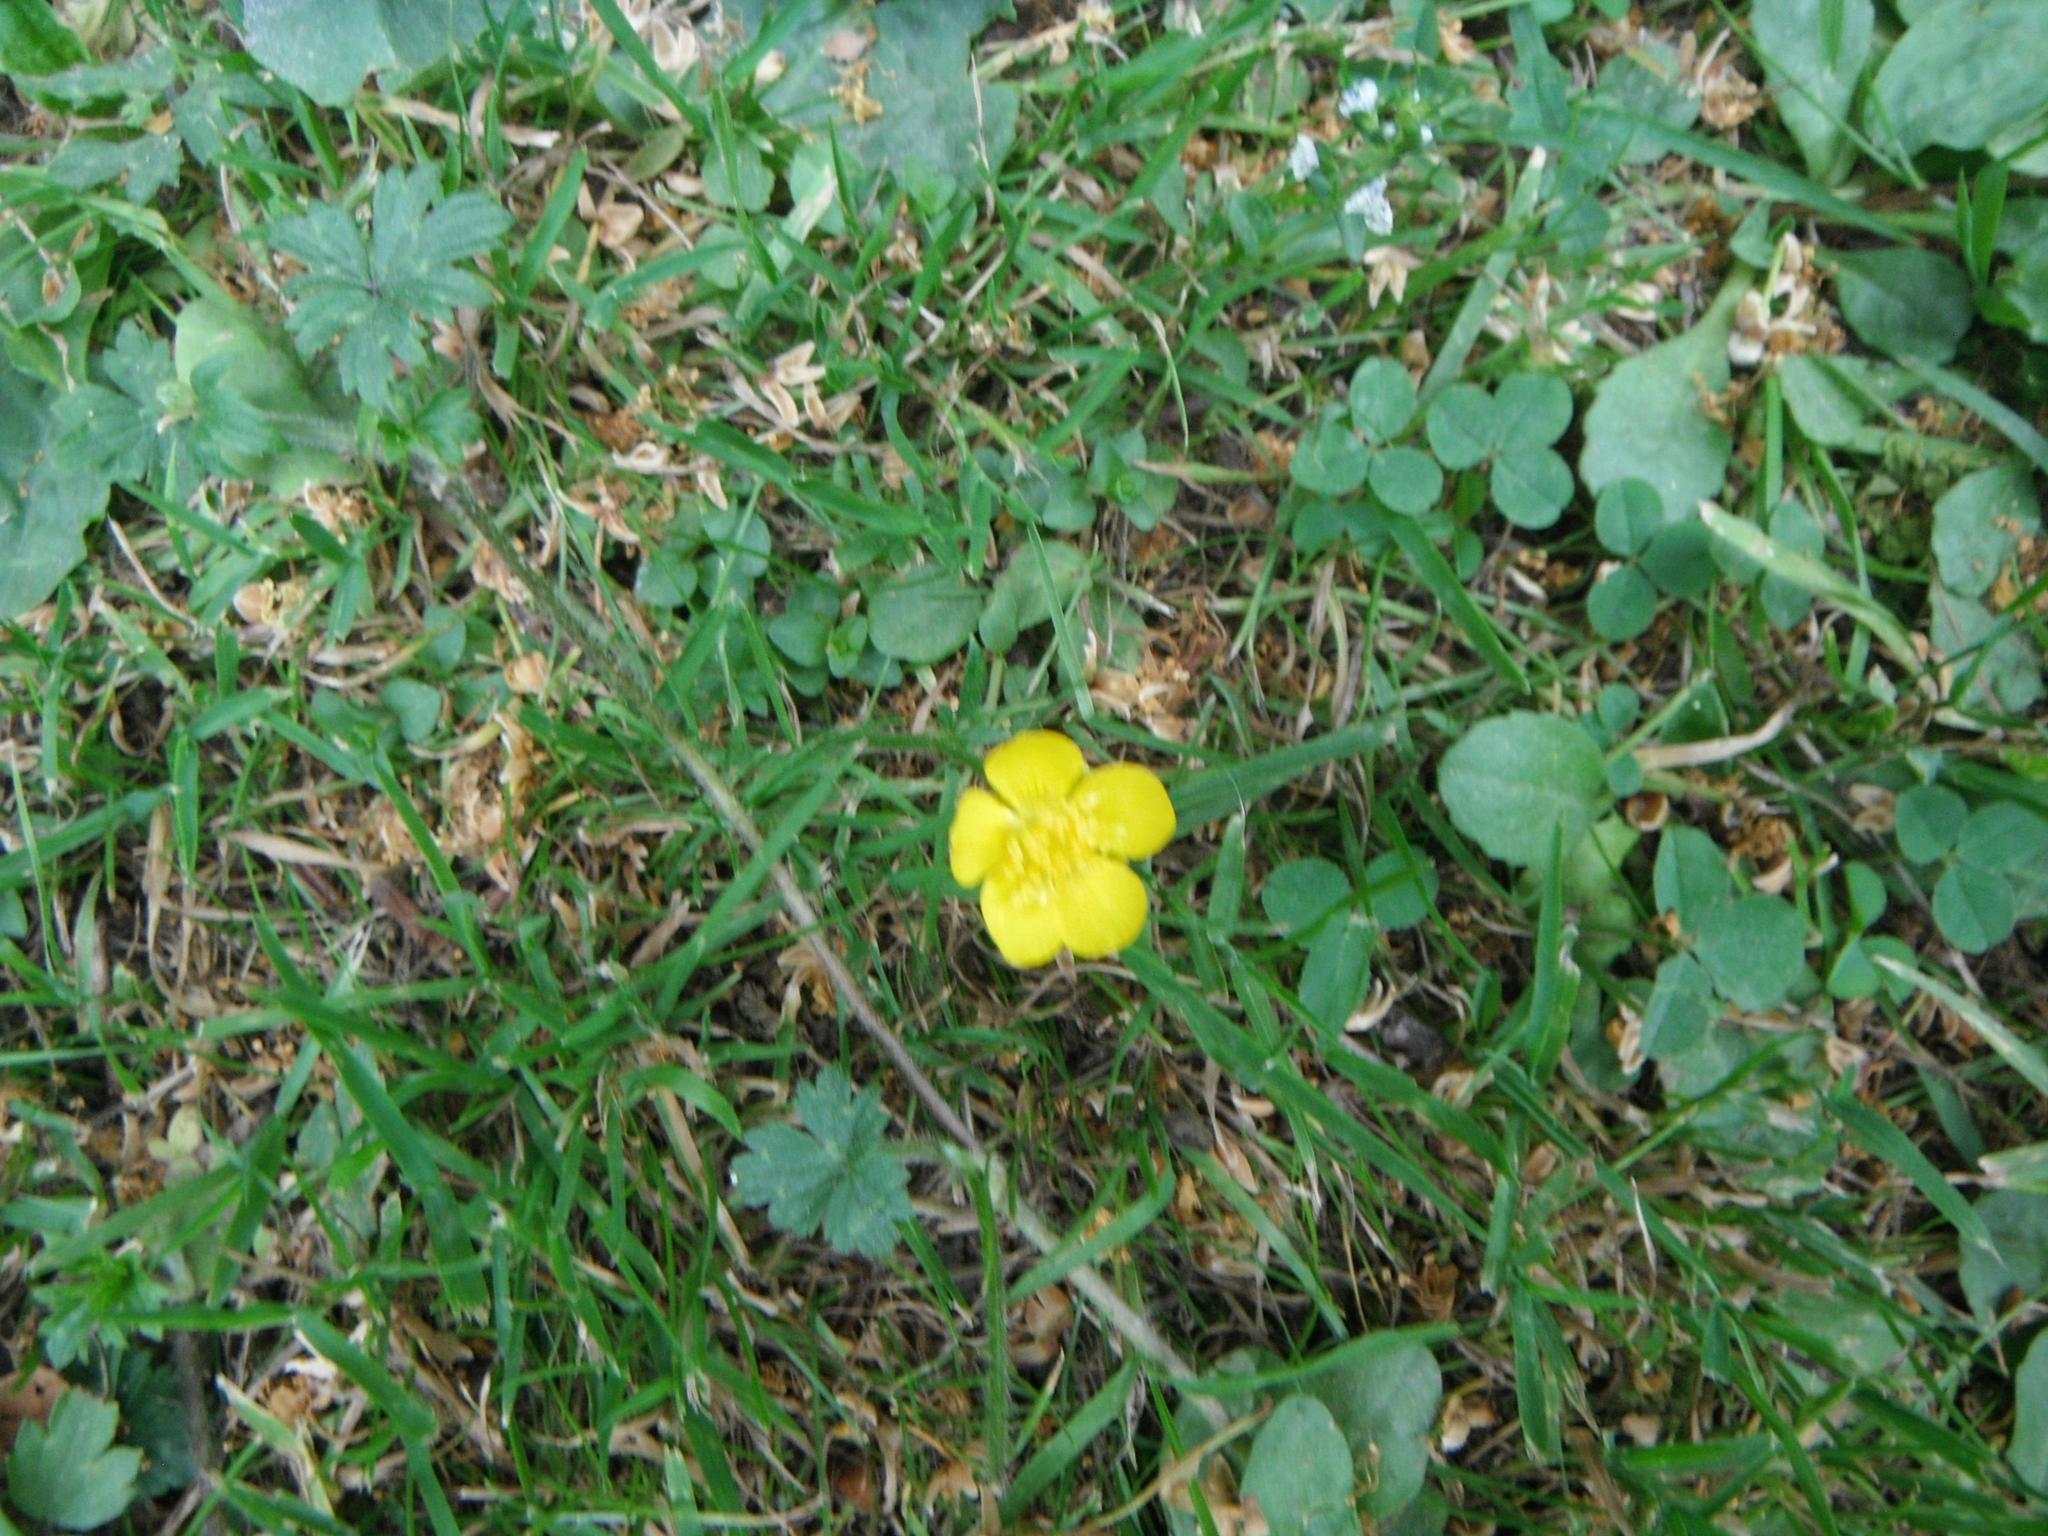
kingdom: Plantae
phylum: Tracheophyta
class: Magnoliopsida
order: Ranunculales
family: Ranunculaceae
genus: Ranunculus
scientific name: Ranunculus repens
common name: Creeping buttercup
